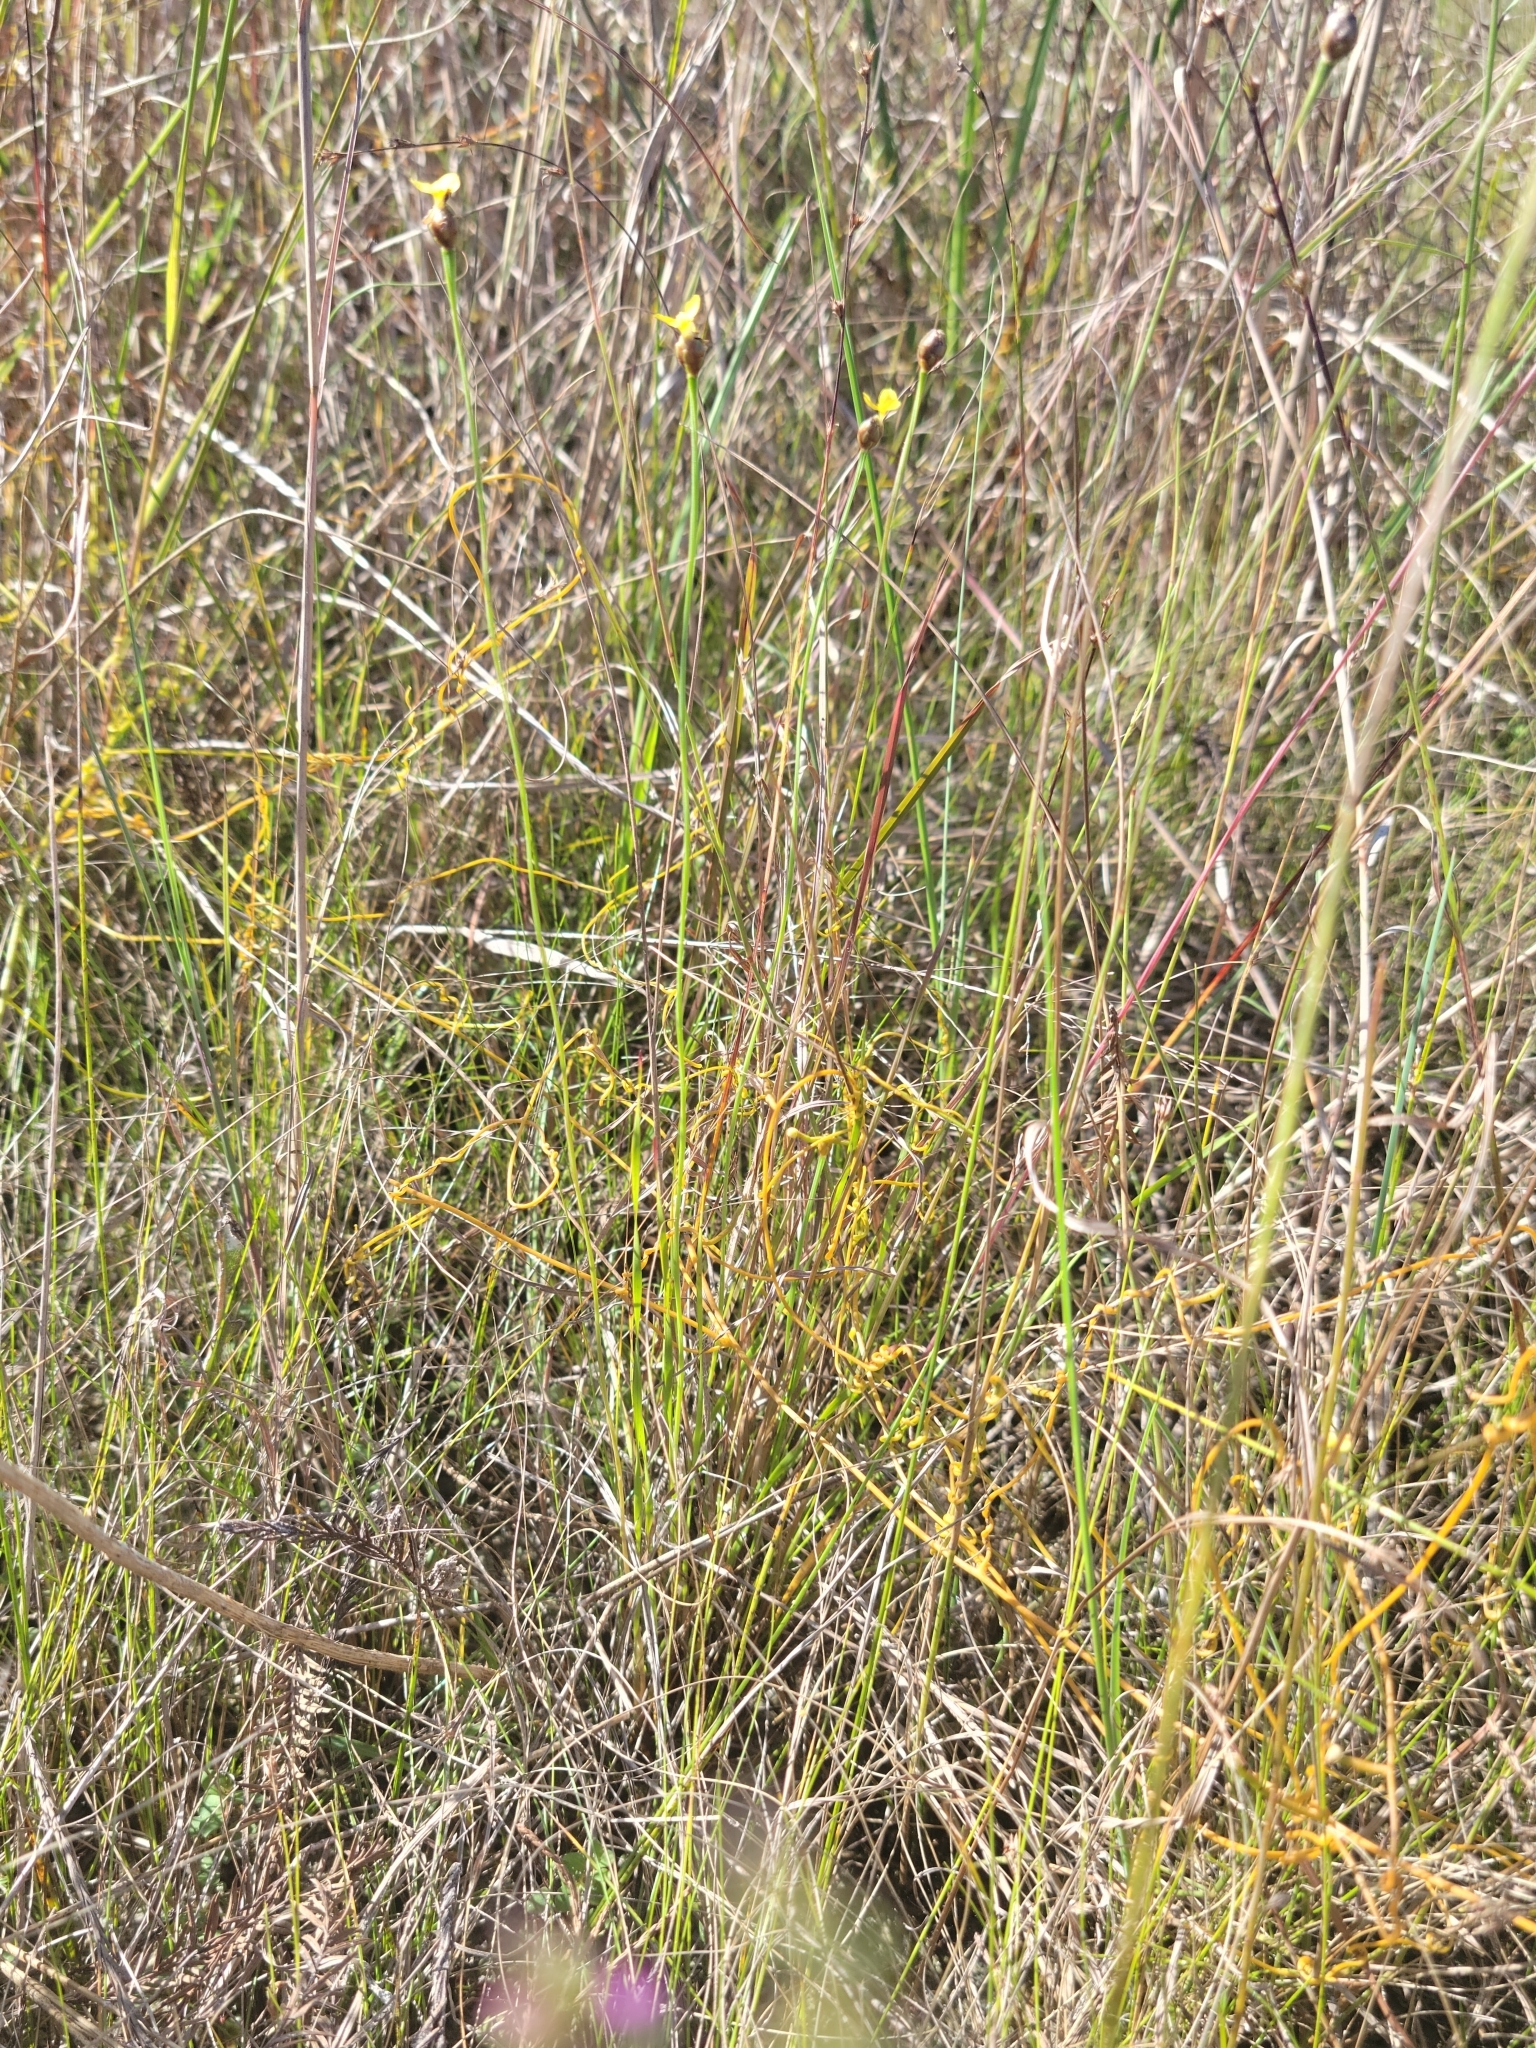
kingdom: Plantae
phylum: Tracheophyta
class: Liliopsida
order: Poales
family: Xyridaceae
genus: Xyris
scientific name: Xyris calcicola
